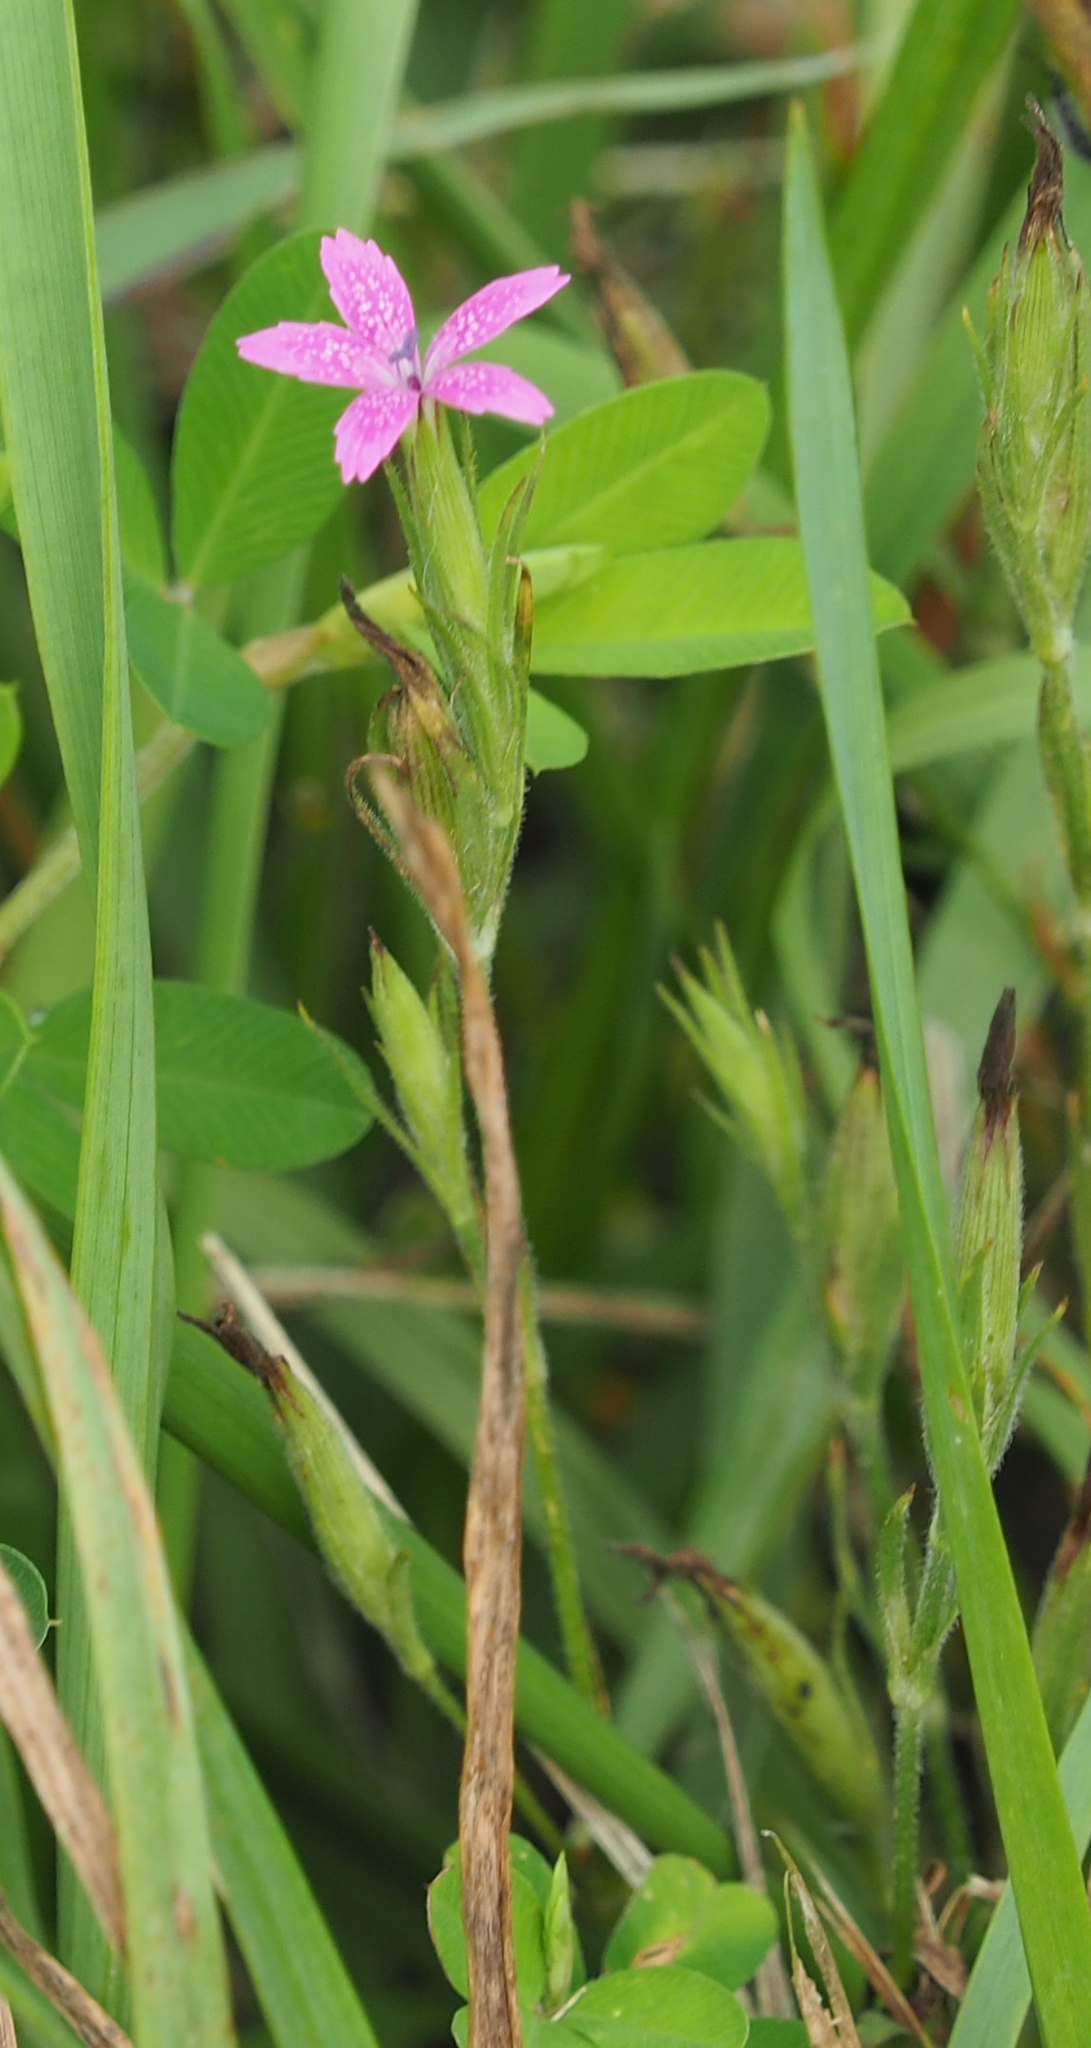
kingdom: Plantae
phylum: Tracheophyta
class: Magnoliopsida
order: Caryophyllales
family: Caryophyllaceae
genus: Dianthus
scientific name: Dianthus armeria
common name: Deptford pink
